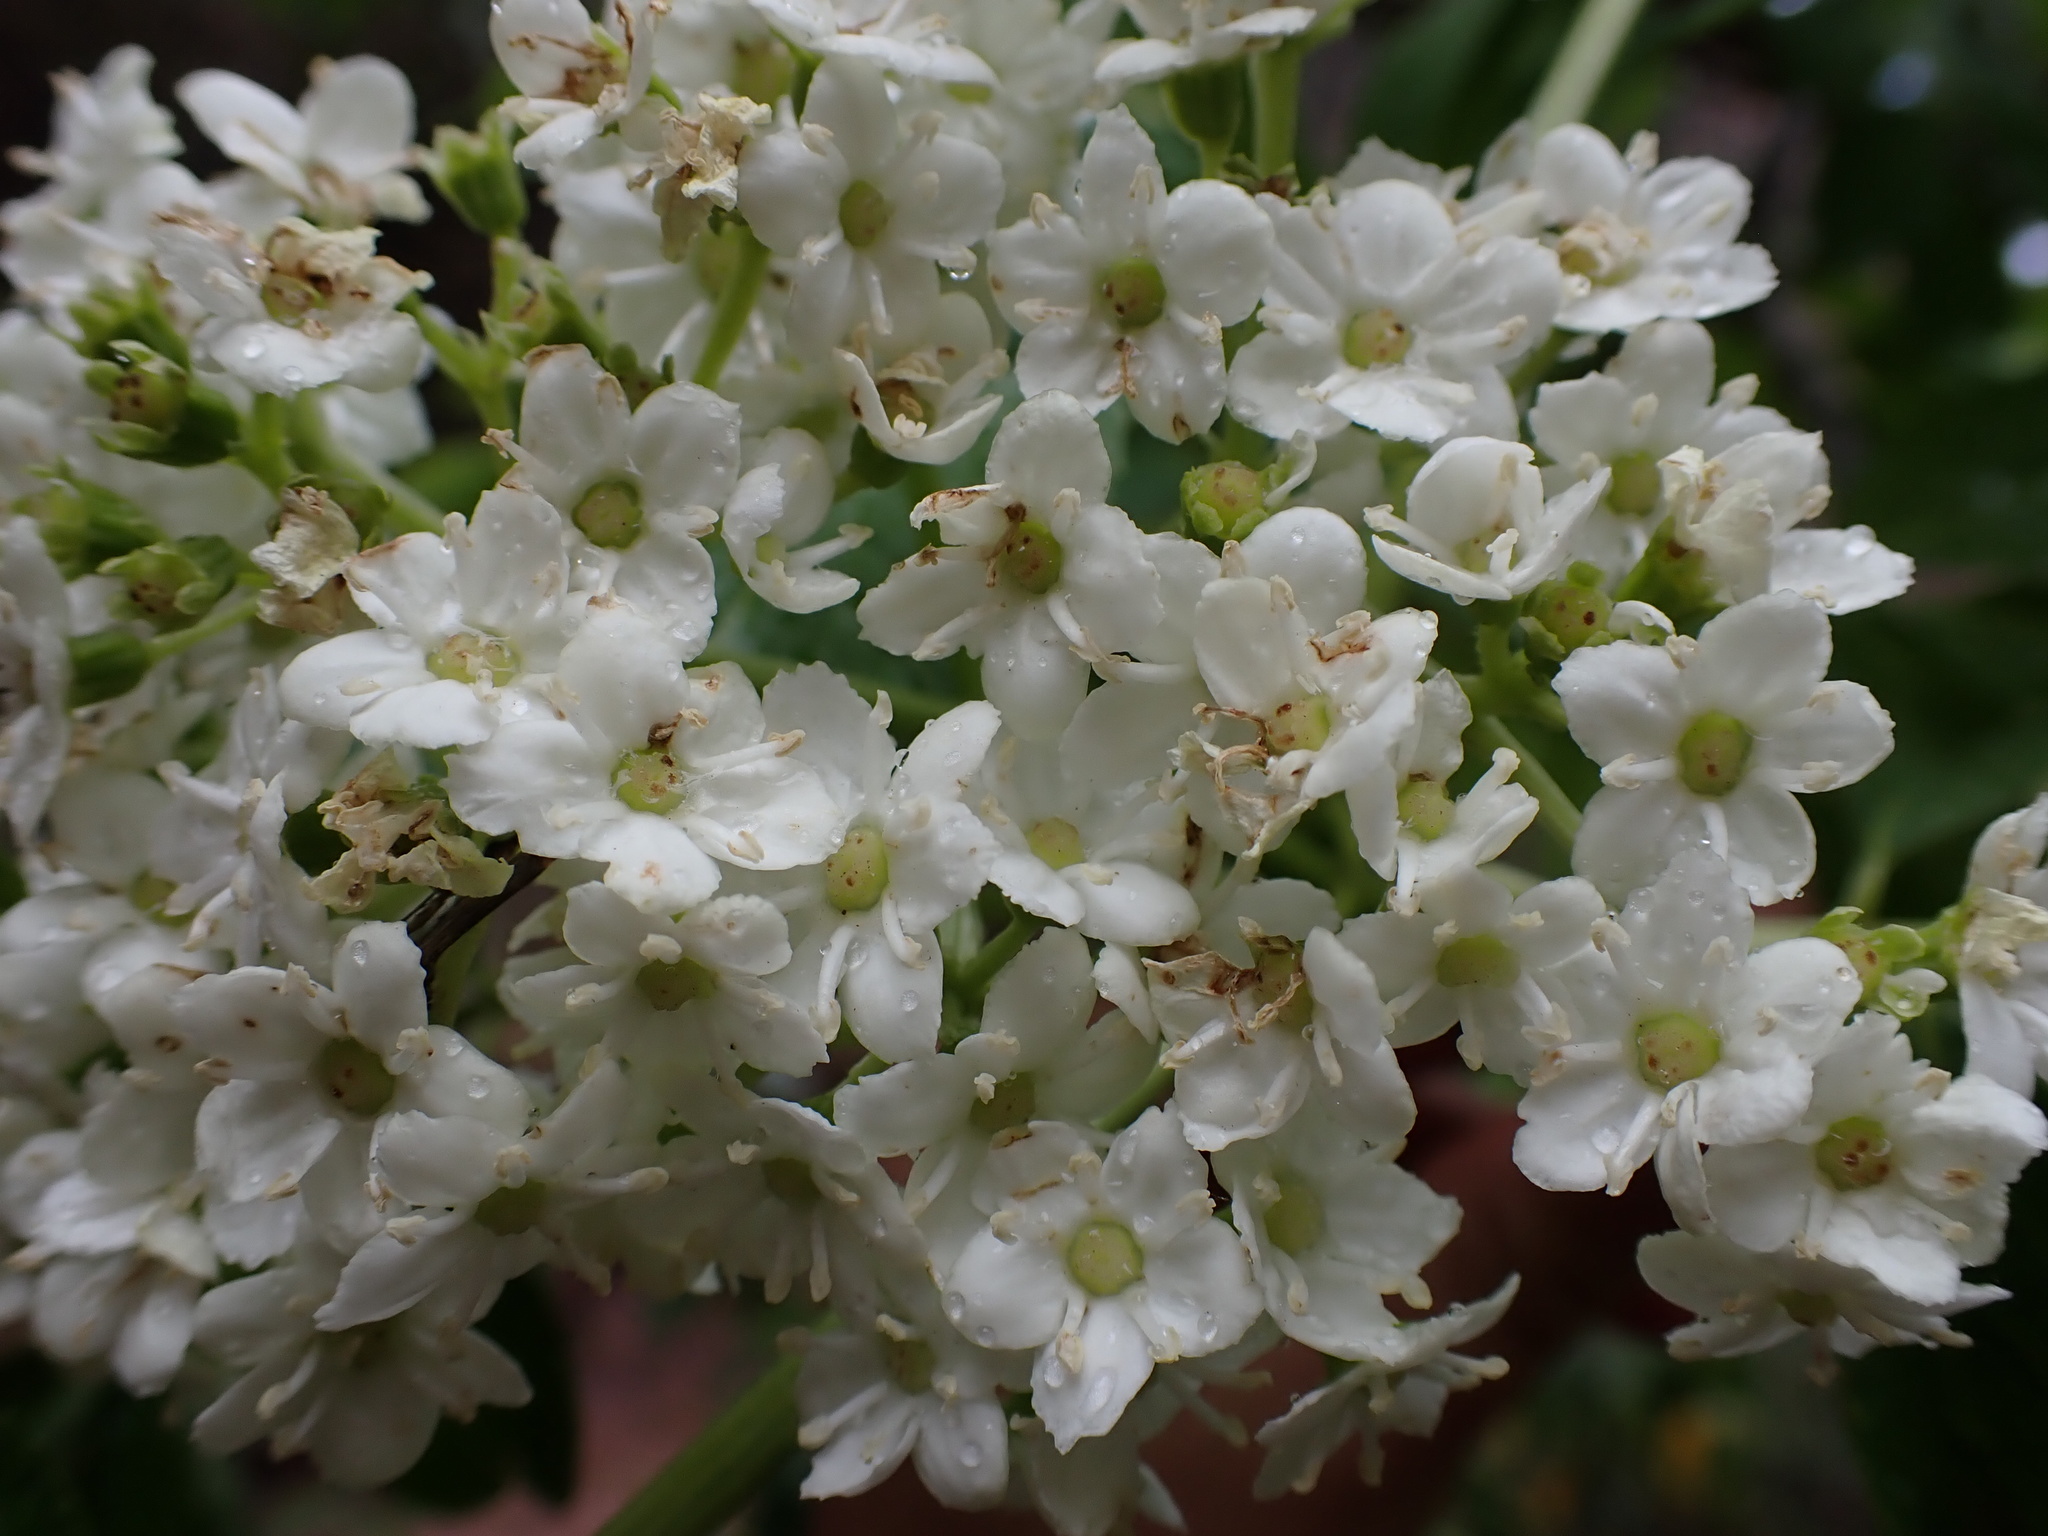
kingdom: Plantae
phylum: Tracheophyta
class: Magnoliopsida
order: Dipsacales
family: Viburnaceae
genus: Sambucus
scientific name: Sambucus peruviana
